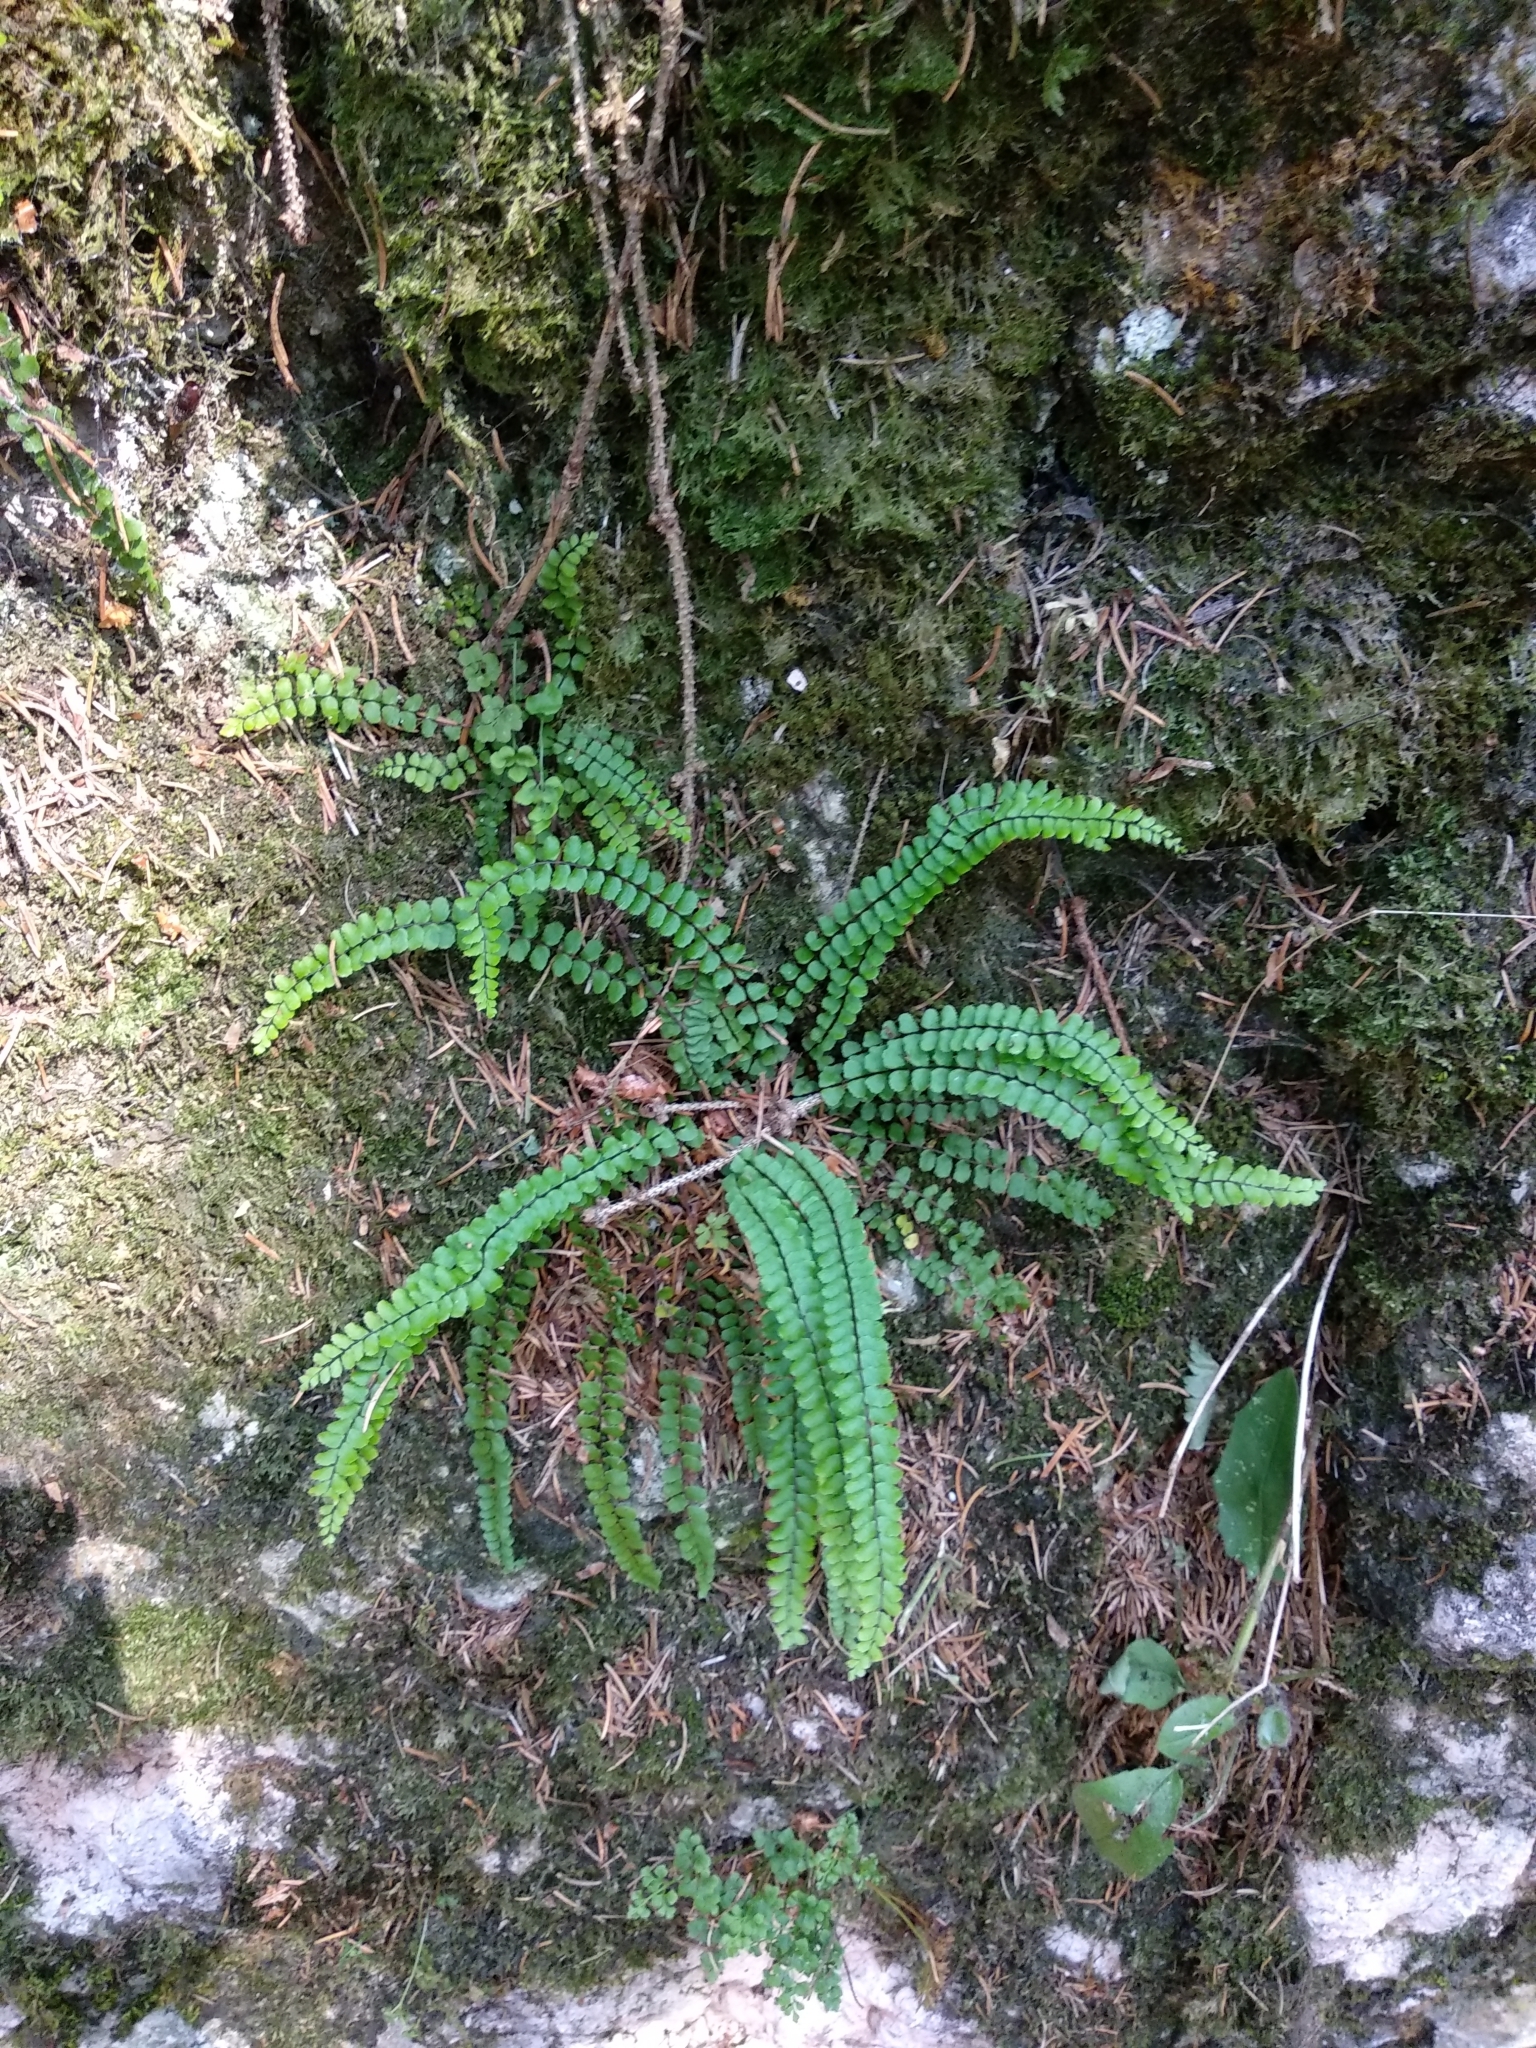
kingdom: Plantae
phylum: Tracheophyta
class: Polypodiopsida
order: Polypodiales
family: Aspleniaceae
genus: Asplenium
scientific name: Asplenium trichomanes
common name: Maidenhair spleenwort
